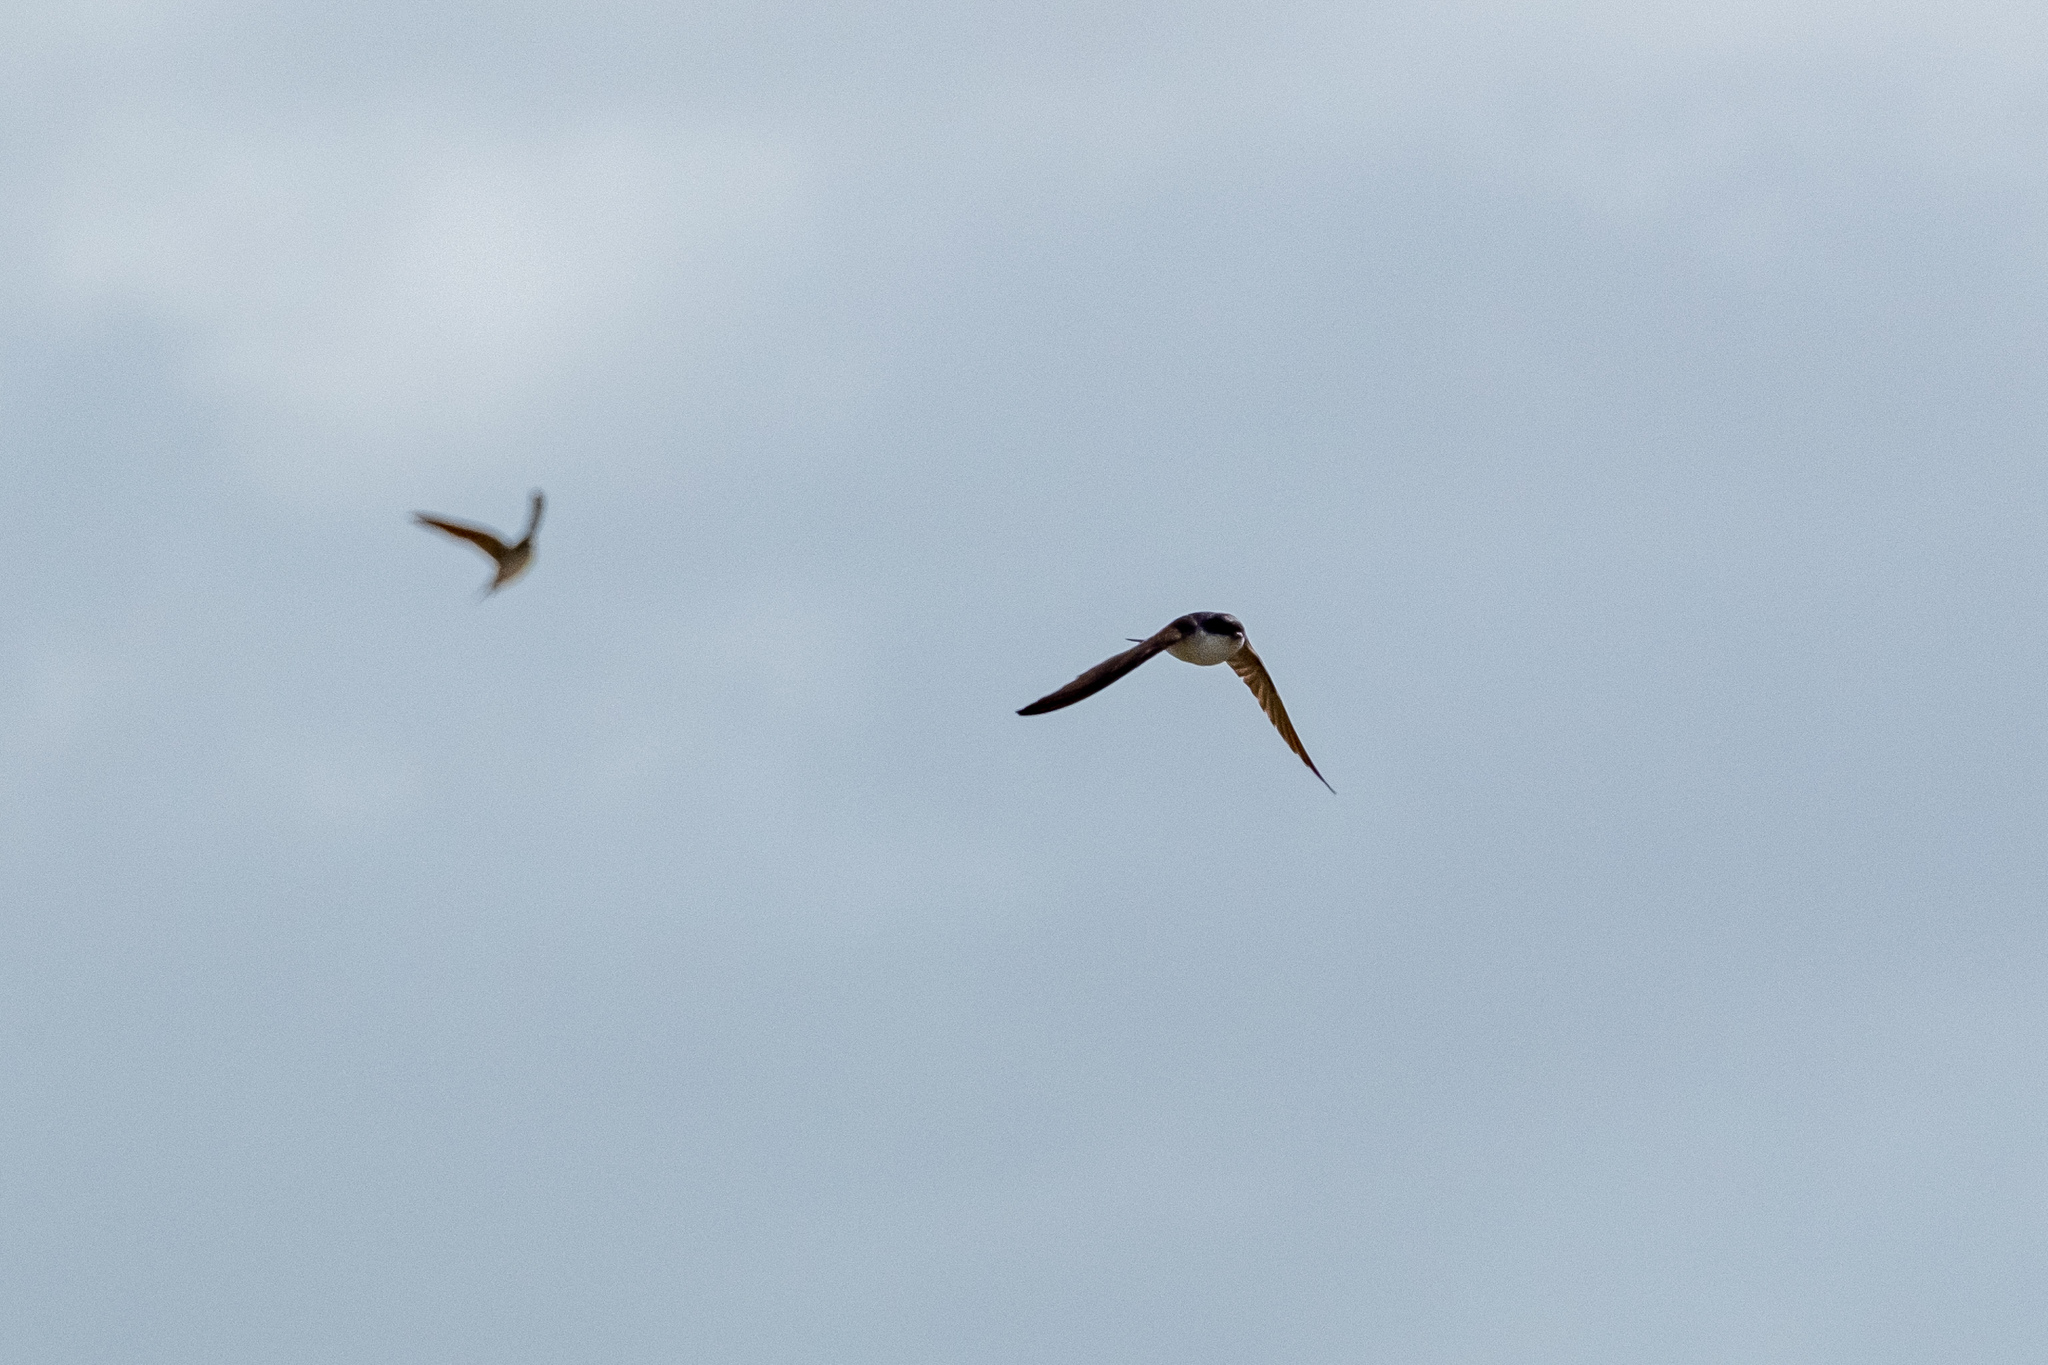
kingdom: Animalia
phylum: Chordata
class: Aves
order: Passeriformes
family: Hirundinidae
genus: Delichon
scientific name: Delichon urbicum
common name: Common house martin
